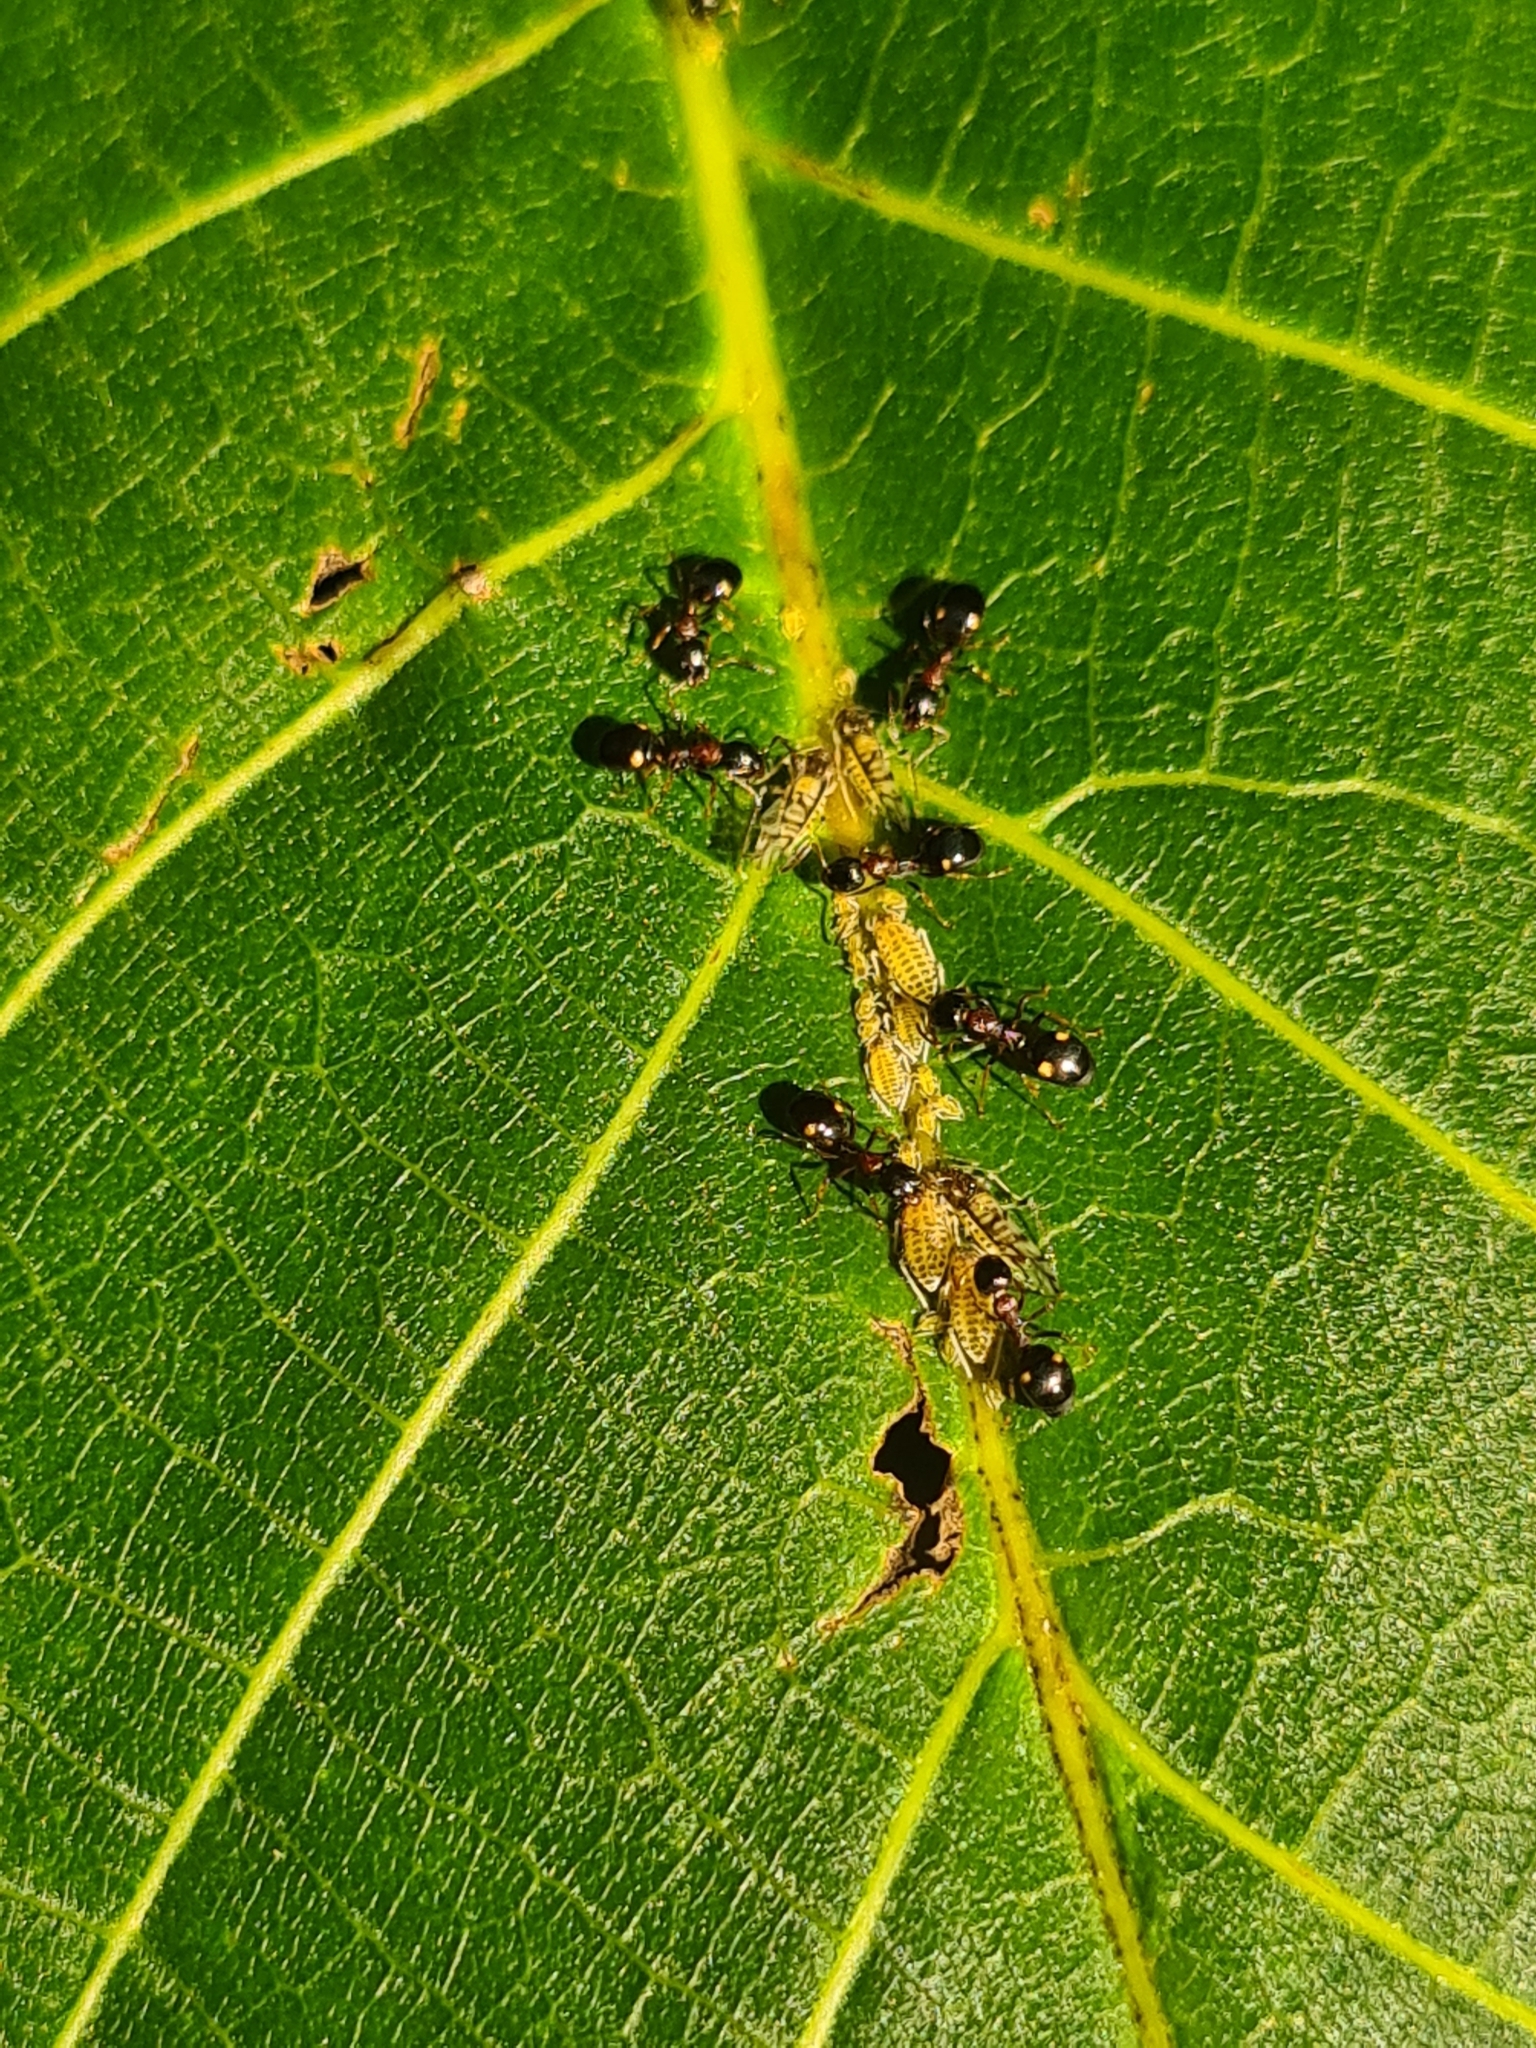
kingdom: Animalia
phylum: Arthropoda
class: Insecta
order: Hymenoptera
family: Formicidae
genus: Dolichoderus
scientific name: Dolichoderus quadripunctatus
